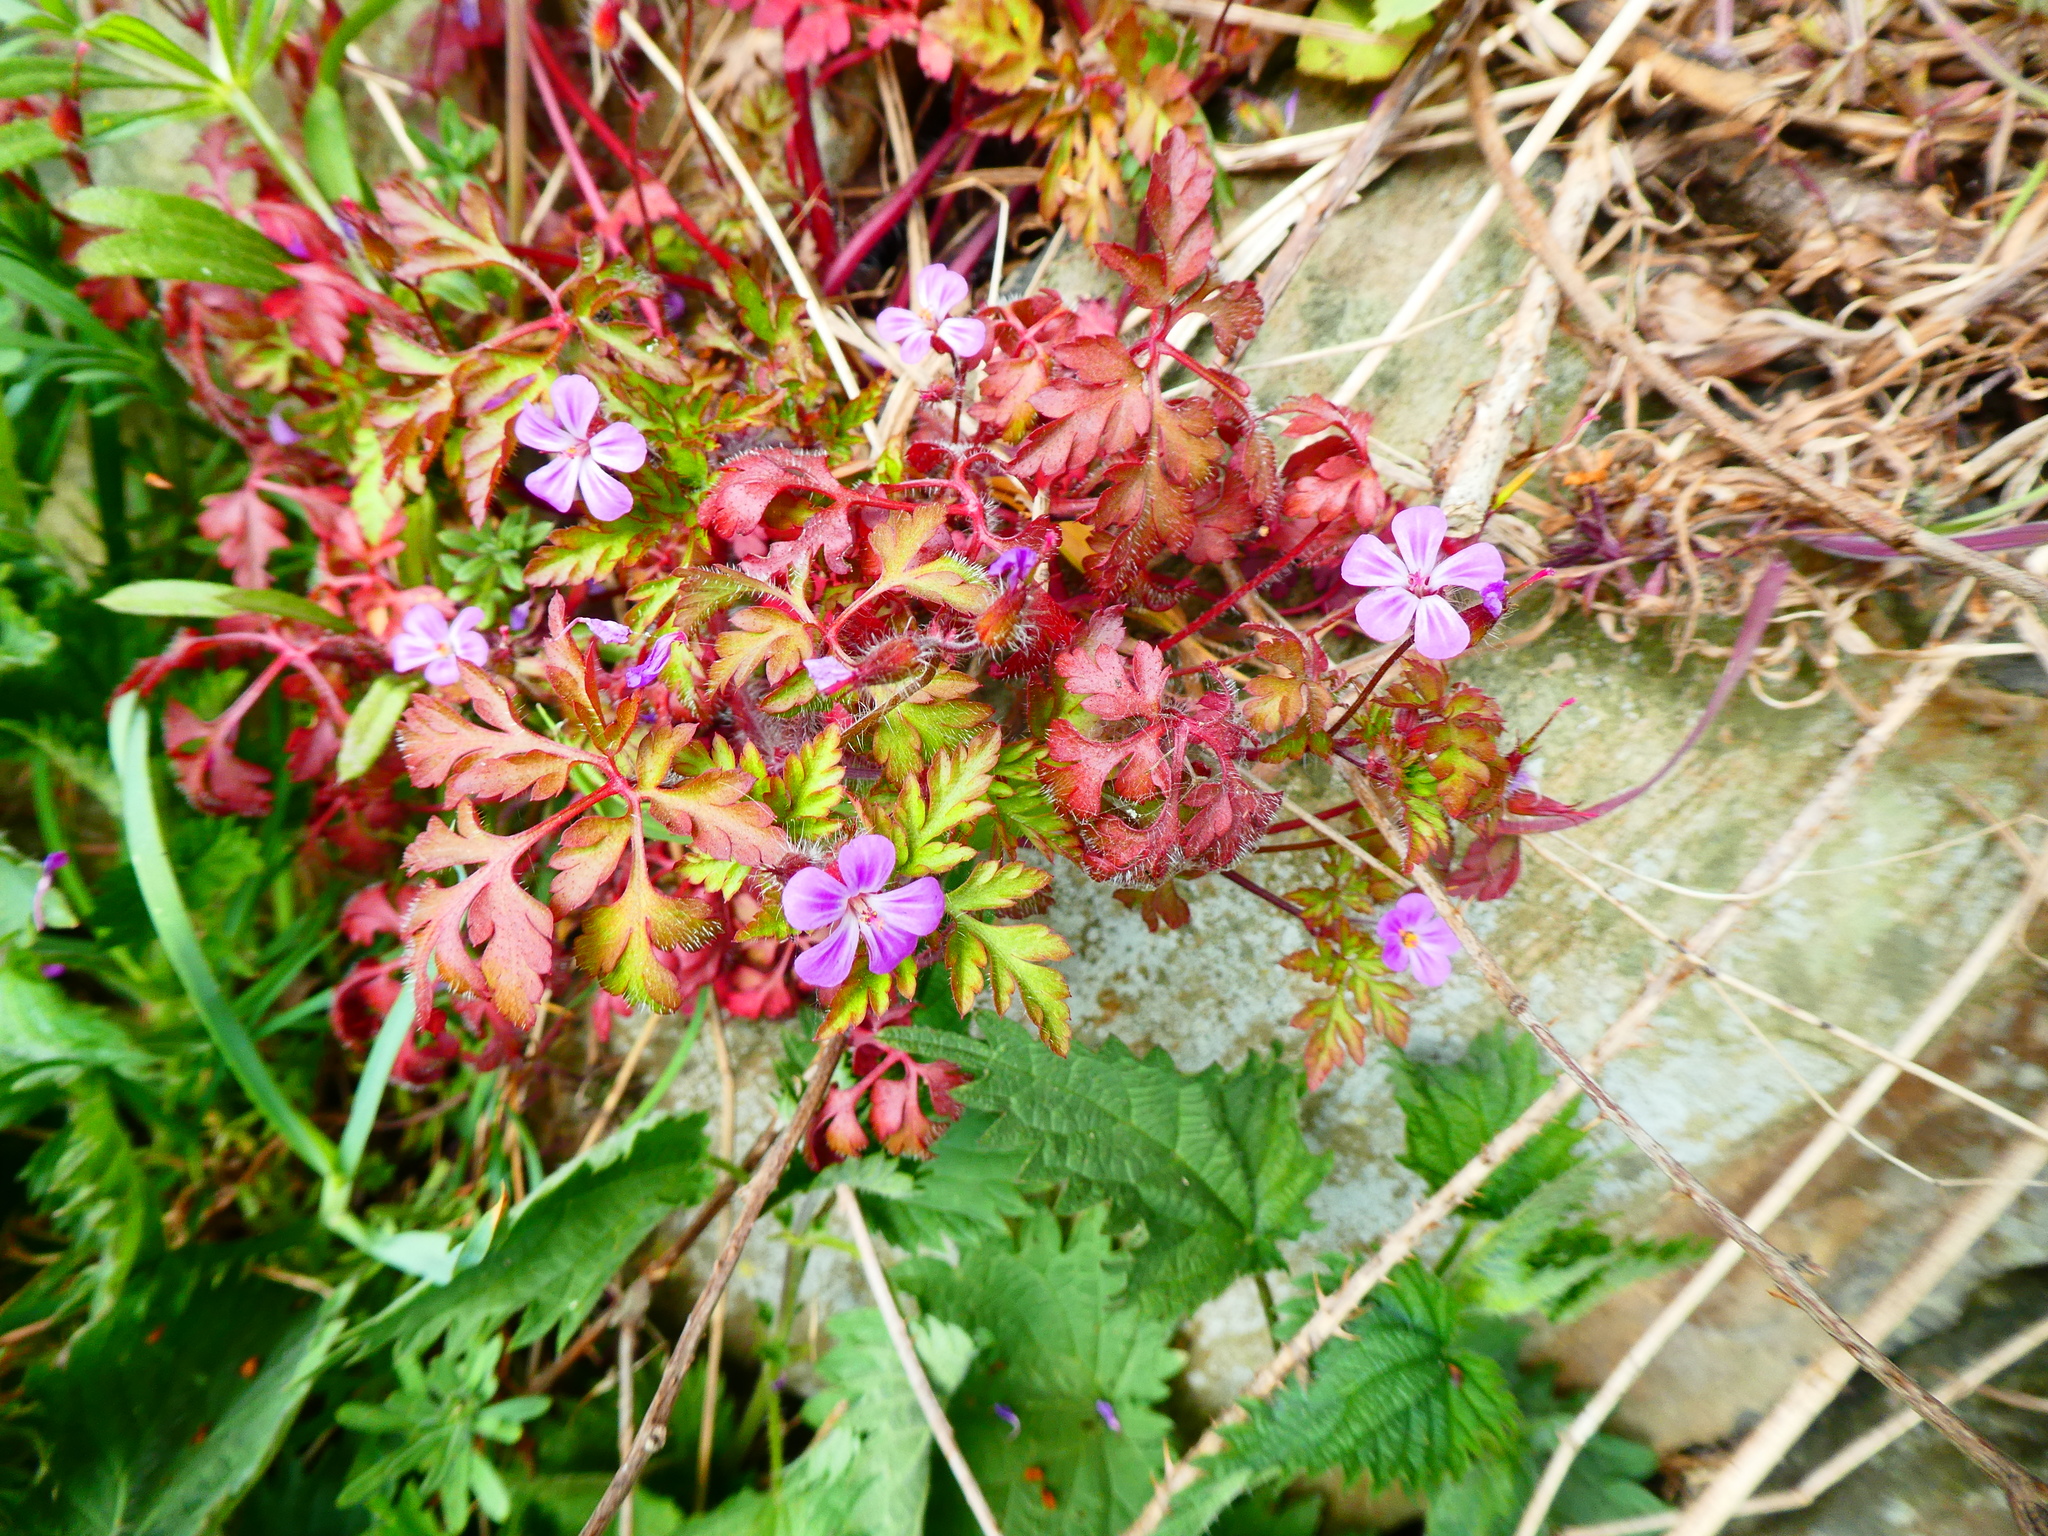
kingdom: Plantae
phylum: Tracheophyta
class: Magnoliopsida
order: Geraniales
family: Geraniaceae
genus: Geranium
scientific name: Geranium robertianum
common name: Herb-robert
